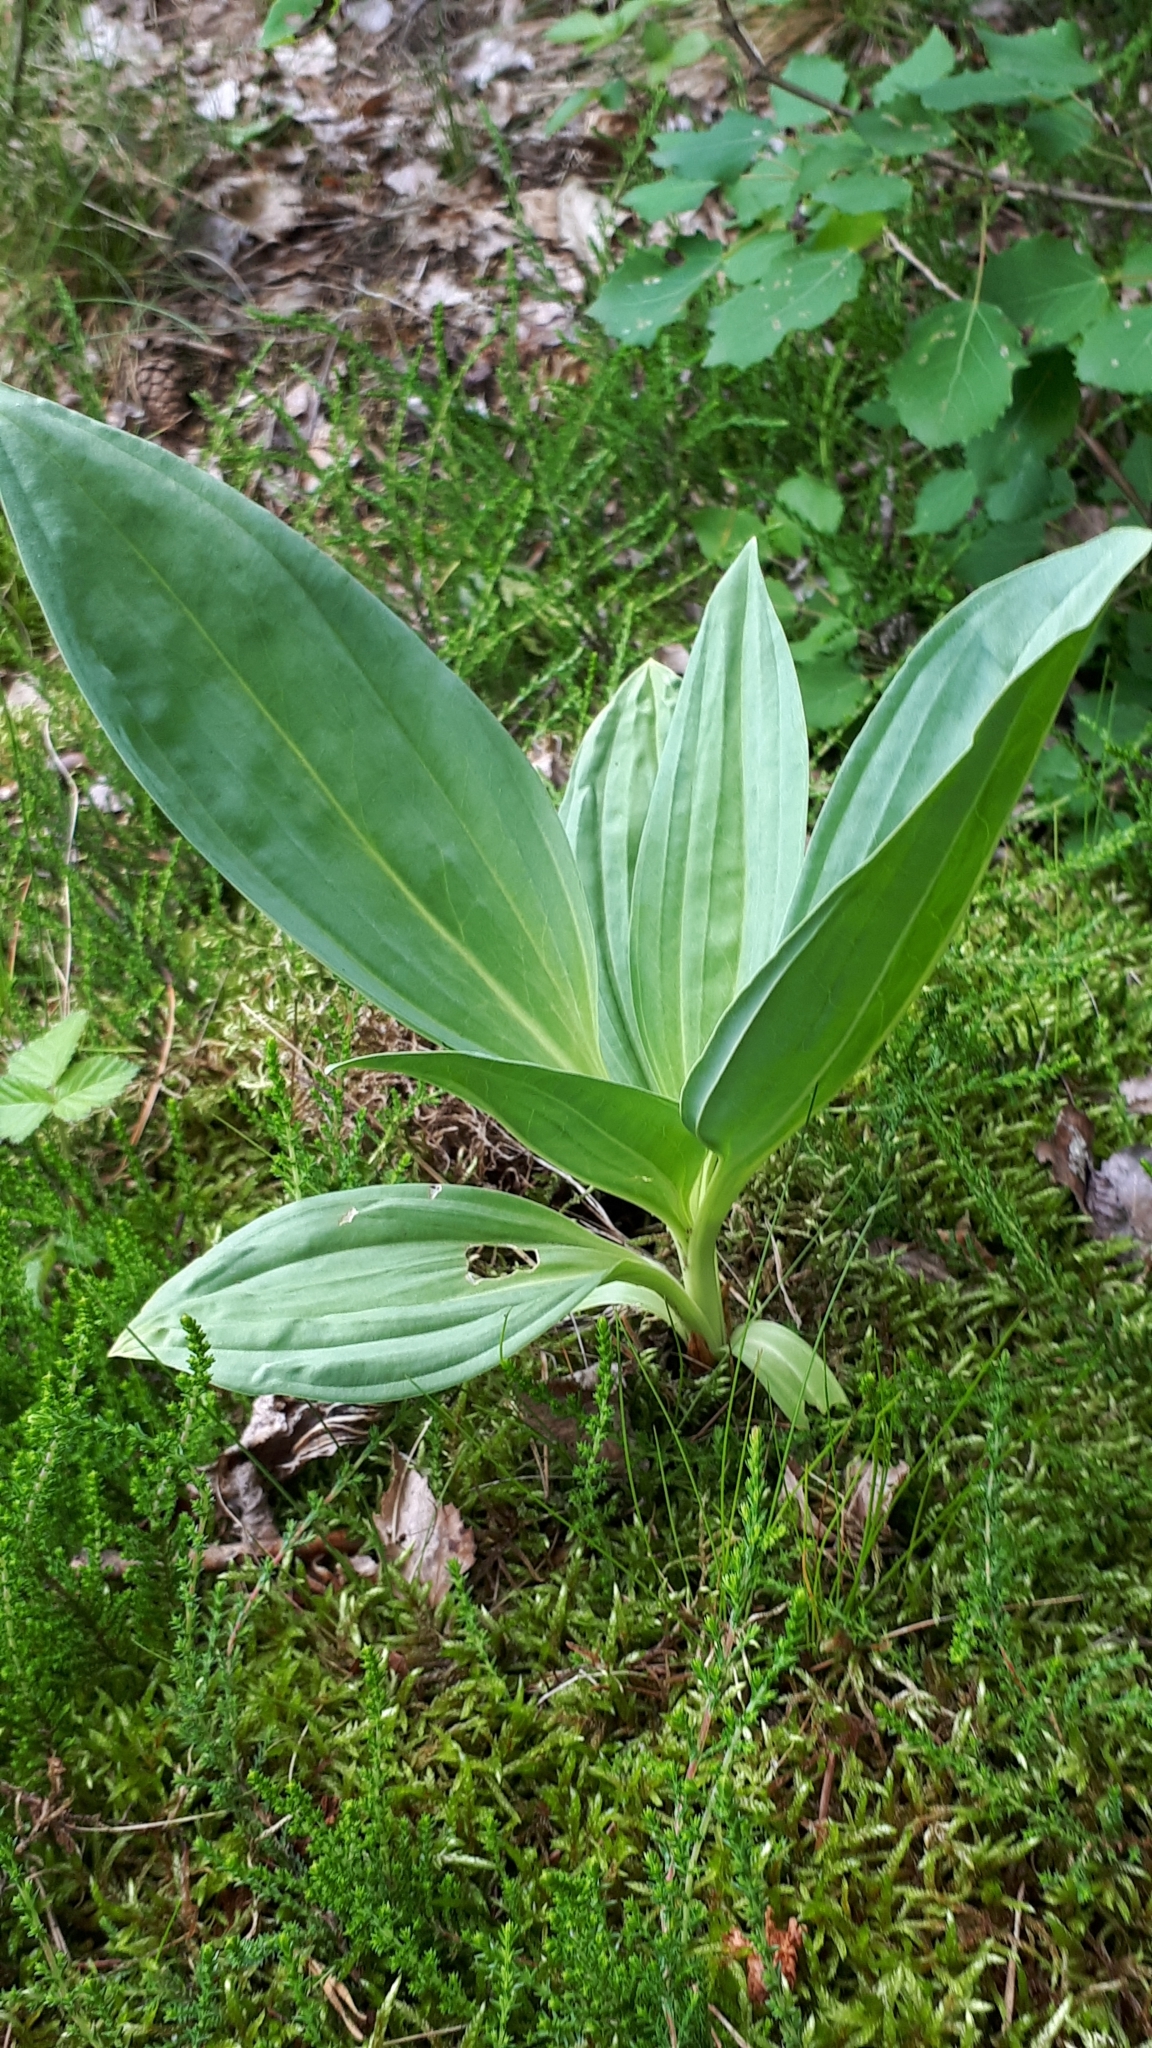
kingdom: Plantae
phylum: Tracheophyta
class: Magnoliopsida
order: Gentianales
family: Gentianaceae
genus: Gentiana
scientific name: Gentiana lutea
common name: Great yellow gentian
